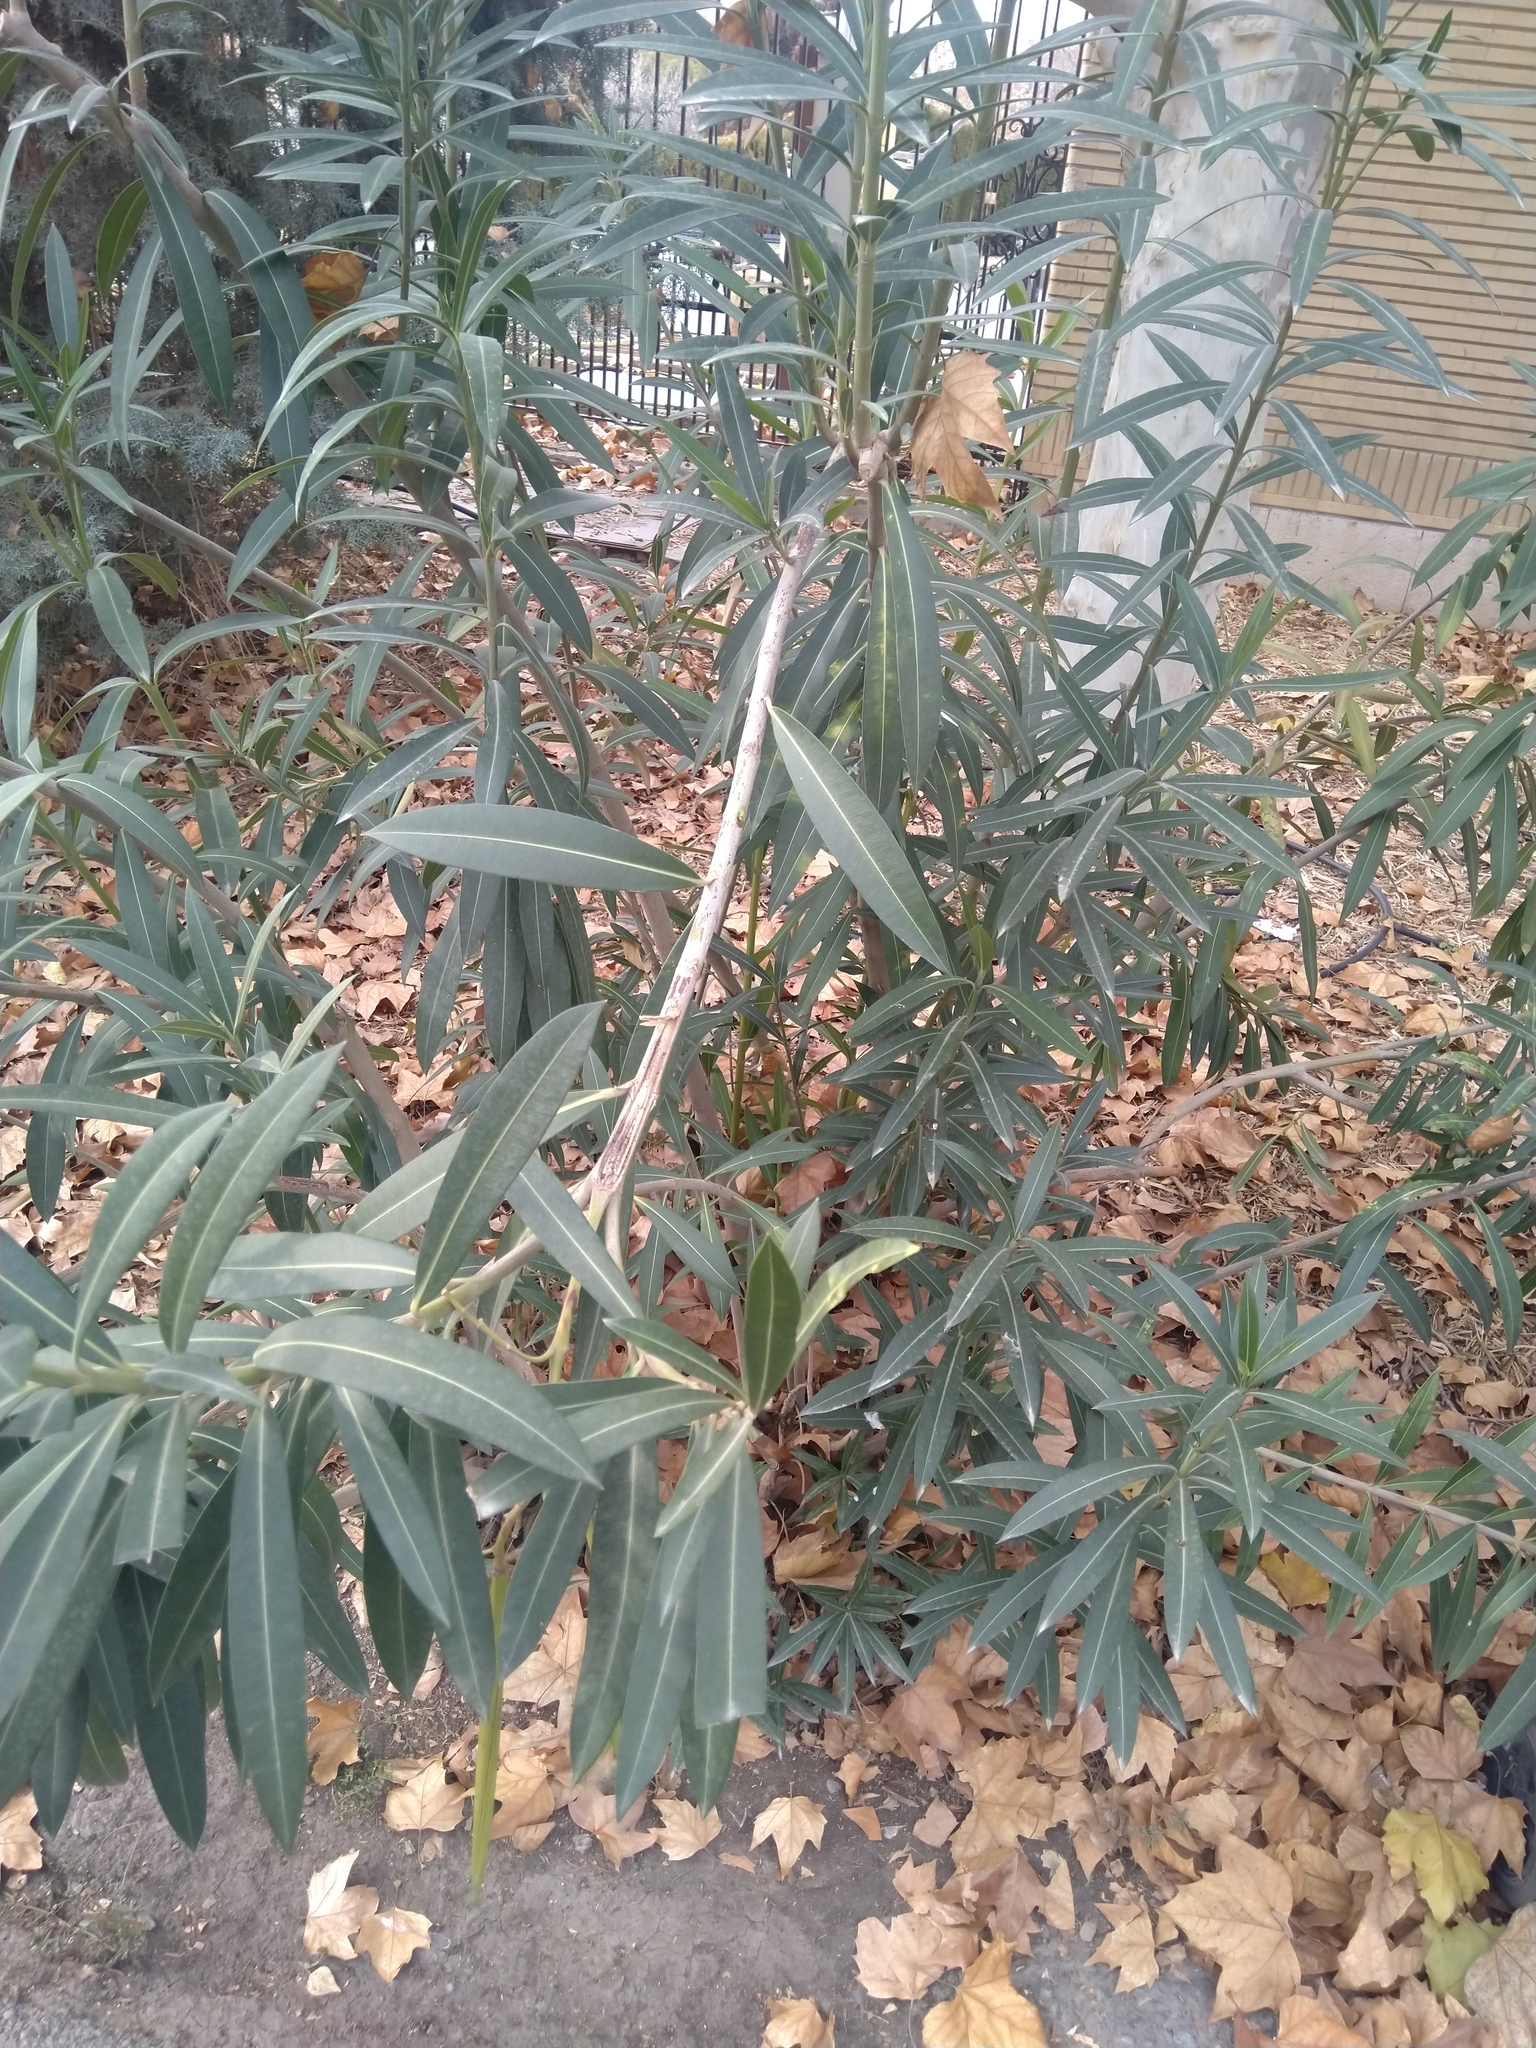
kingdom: Plantae
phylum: Tracheophyta
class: Magnoliopsida
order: Gentianales
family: Apocynaceae
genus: Nerium
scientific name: Nerium oleander
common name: Oleander
